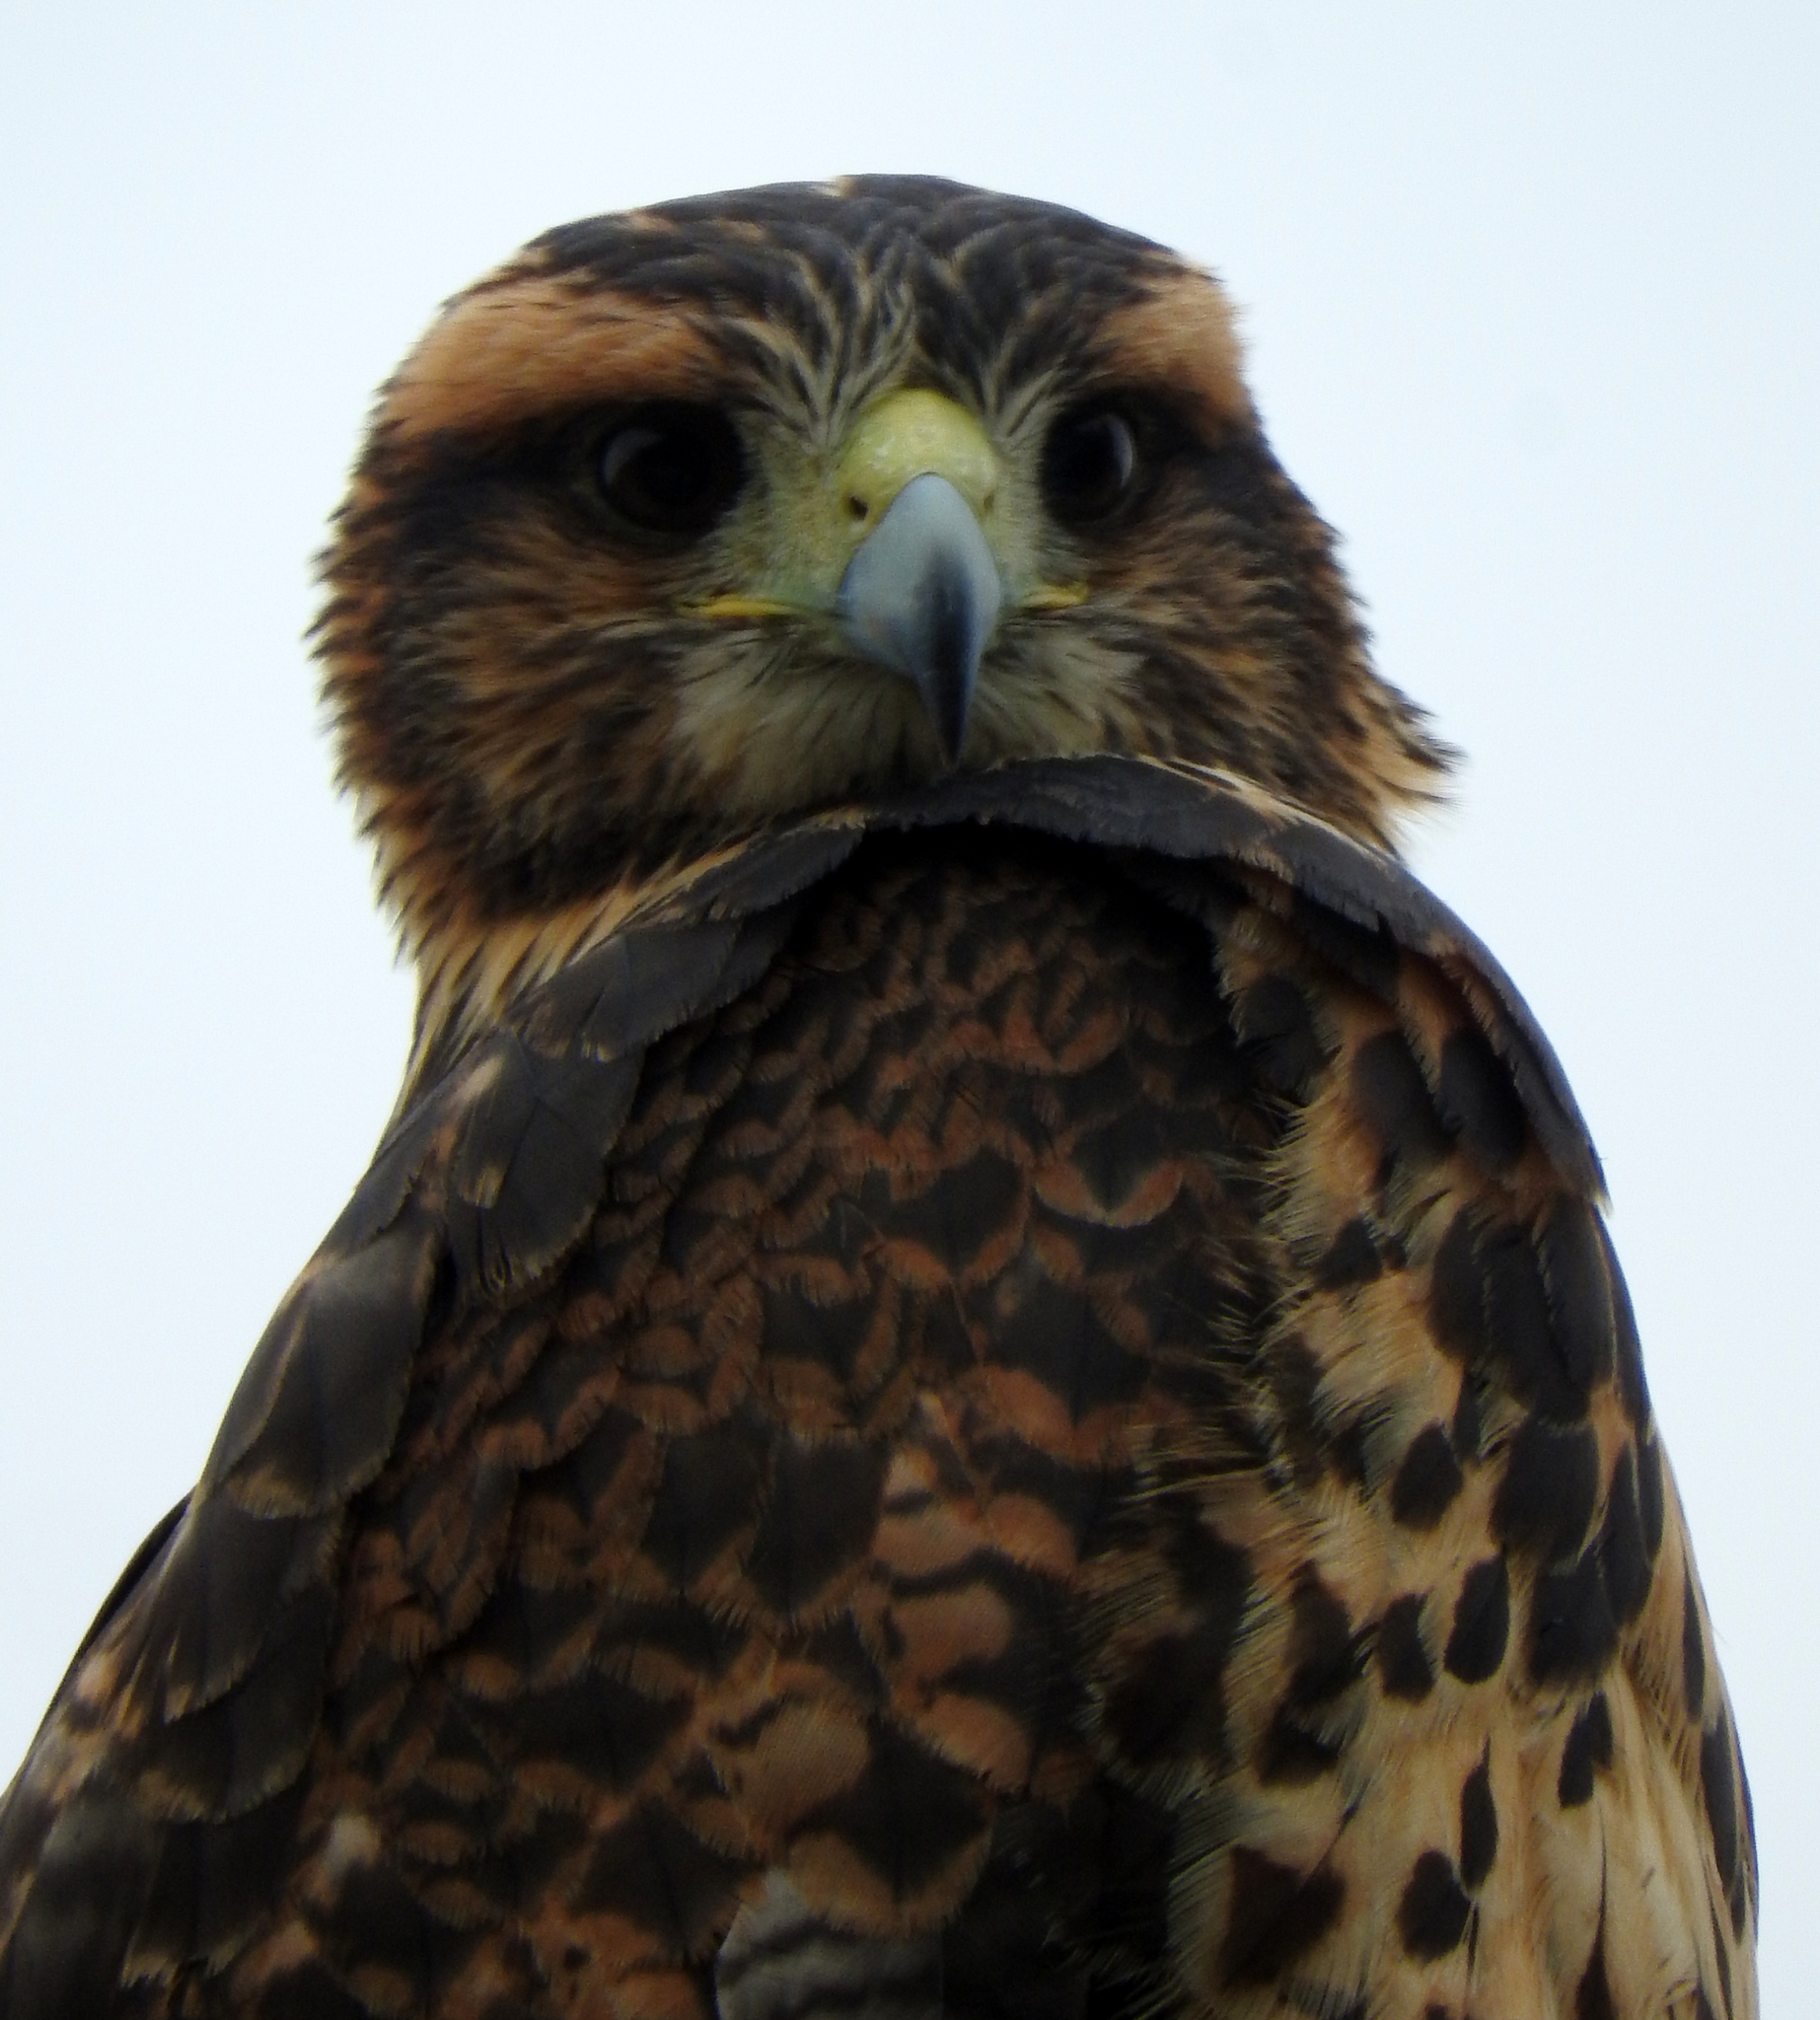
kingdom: Animalia
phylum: Chordata
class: Aves
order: Accipitriformes
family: Accipitridae
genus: Parabuteo
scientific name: Parabuteo unicinctus
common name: Harris's hawk
